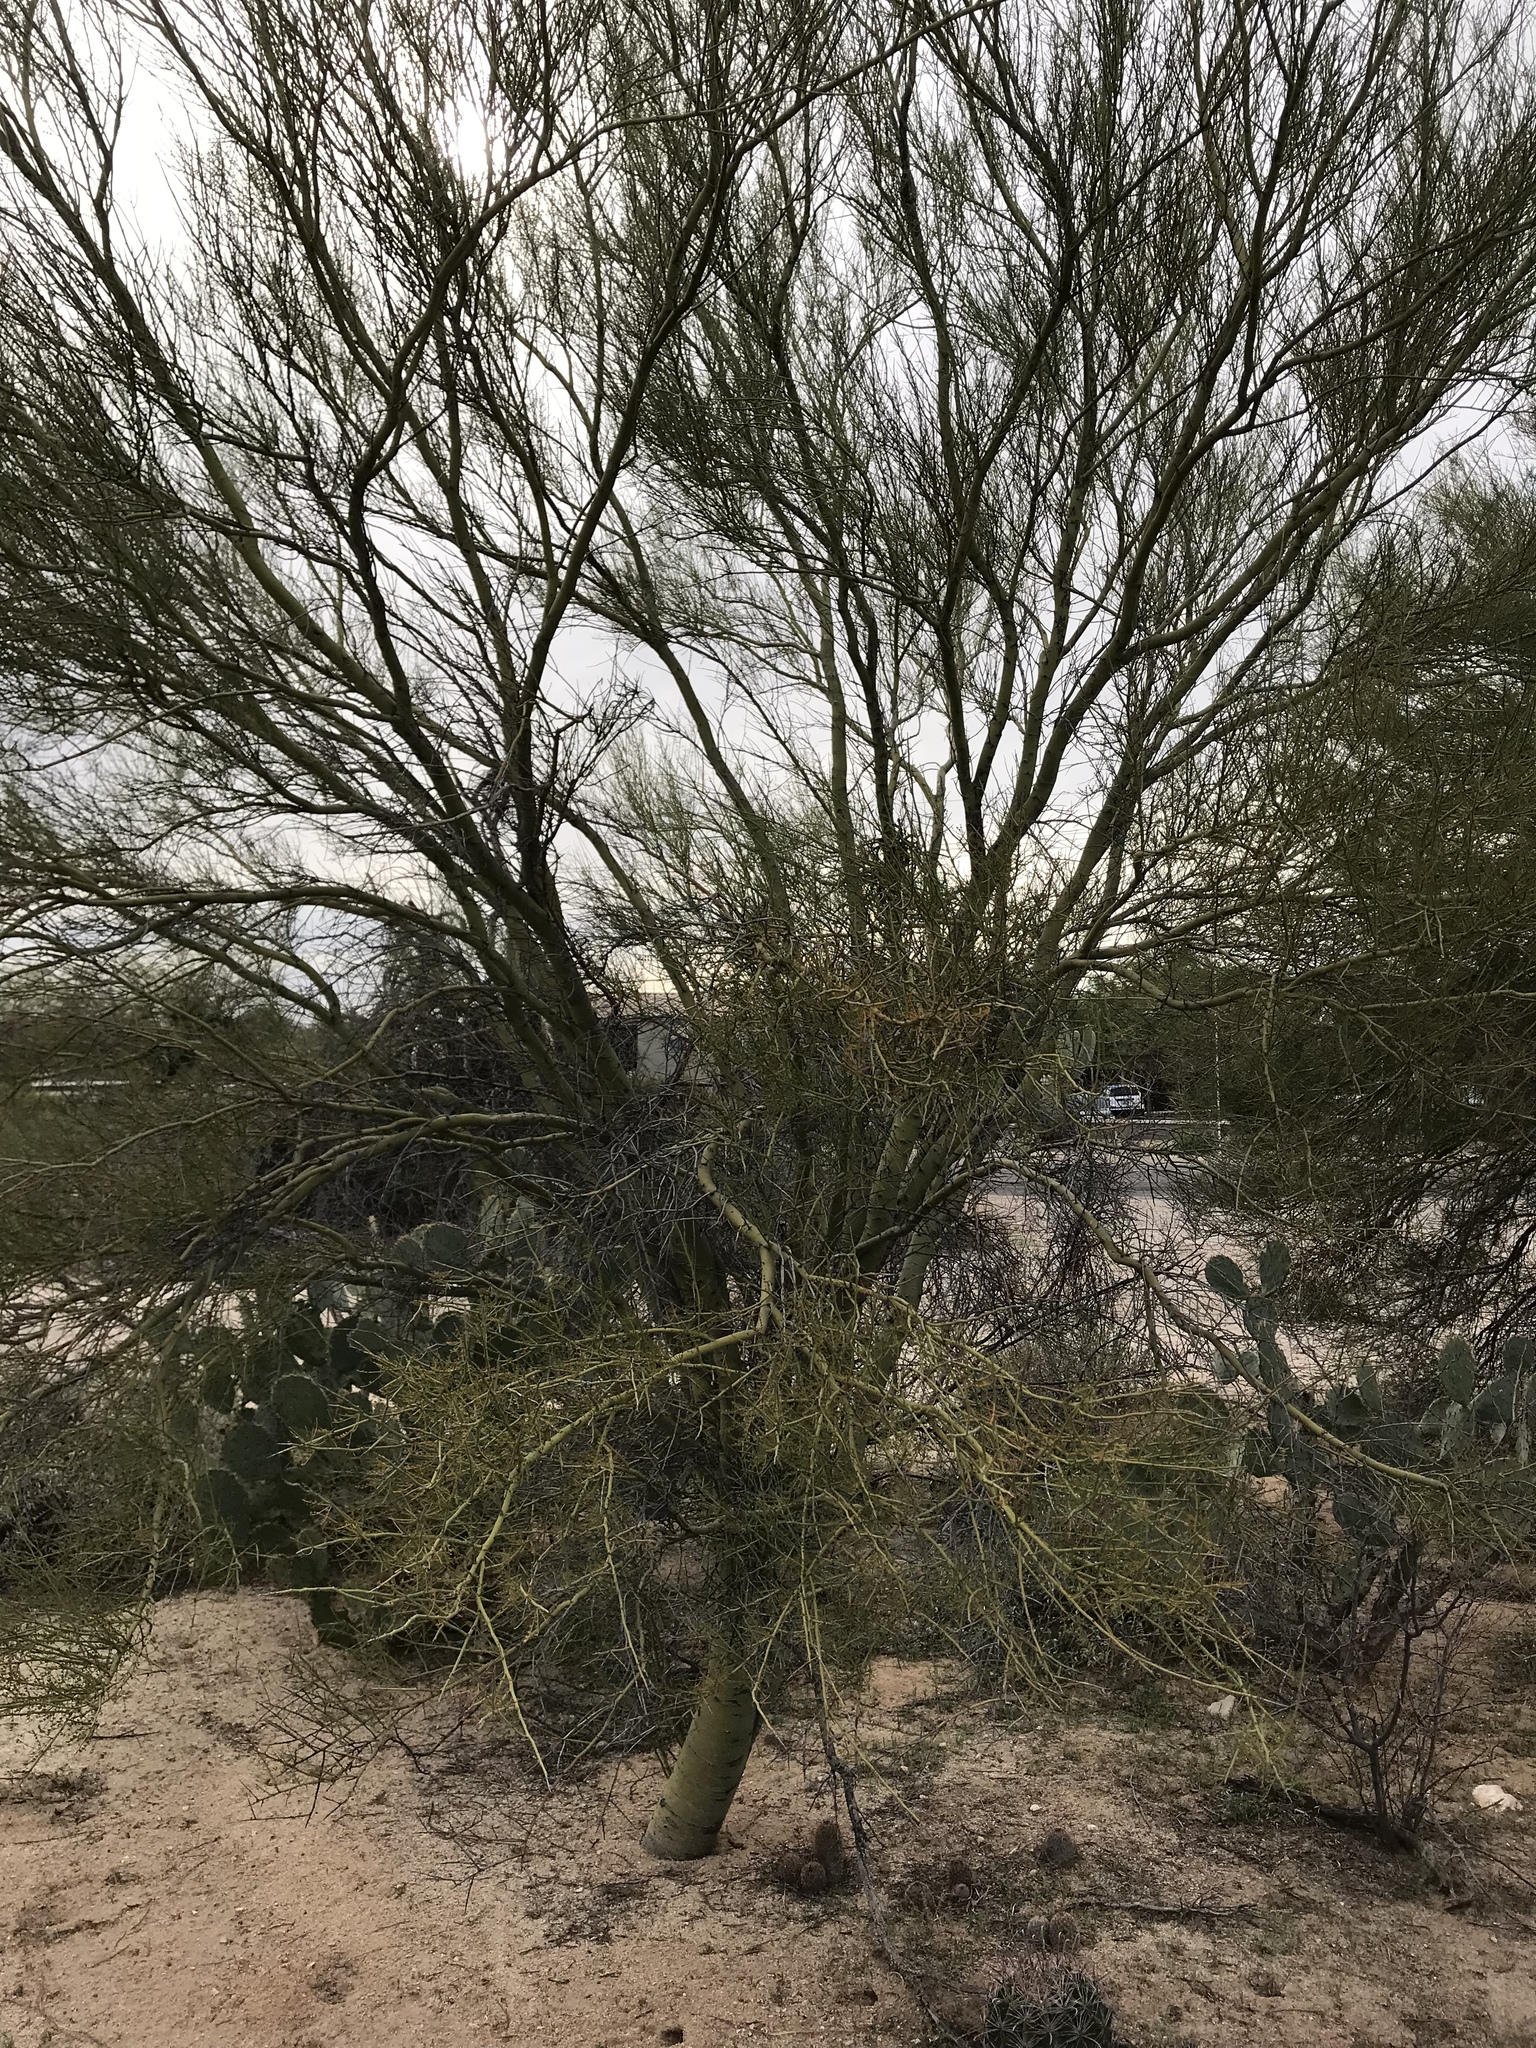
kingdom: Plantae
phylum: Tracheophyta
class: Magnoliopsida
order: Fabales
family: Fabaceae
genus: Parkinsonia
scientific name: Parkinsonia microphylla
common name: Yellow paloverde
